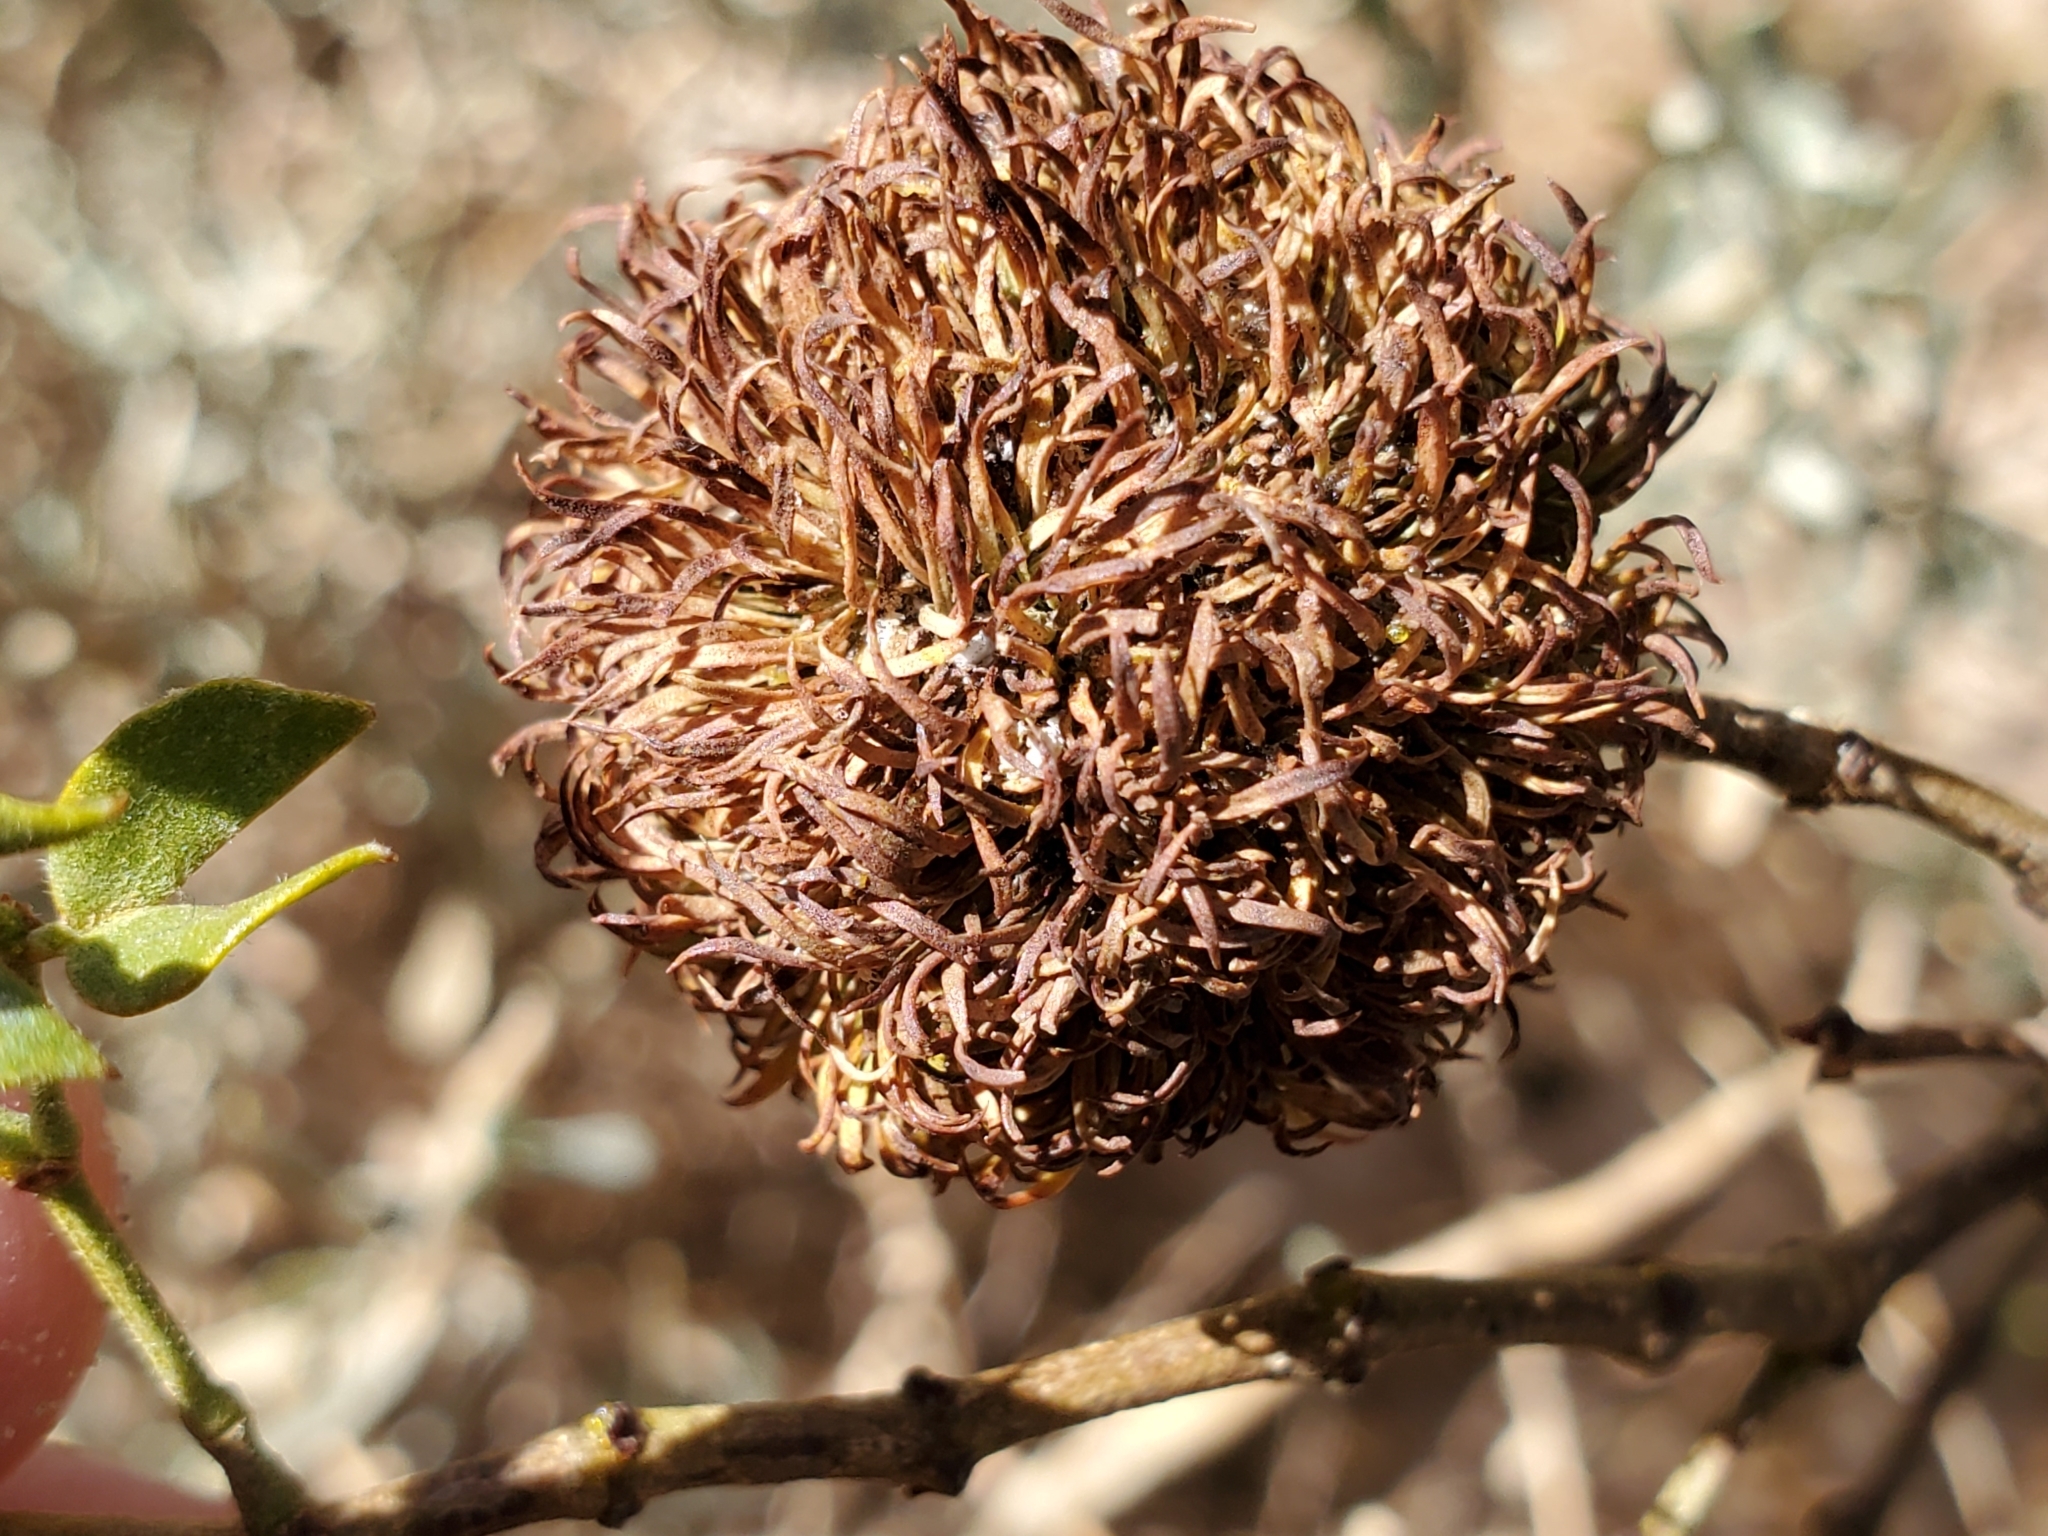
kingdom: Animalia
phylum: Arthropoda
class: Insecta
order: Diptera
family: Cecidomyiidae
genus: Asphondylia
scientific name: Asphondylia auripila
